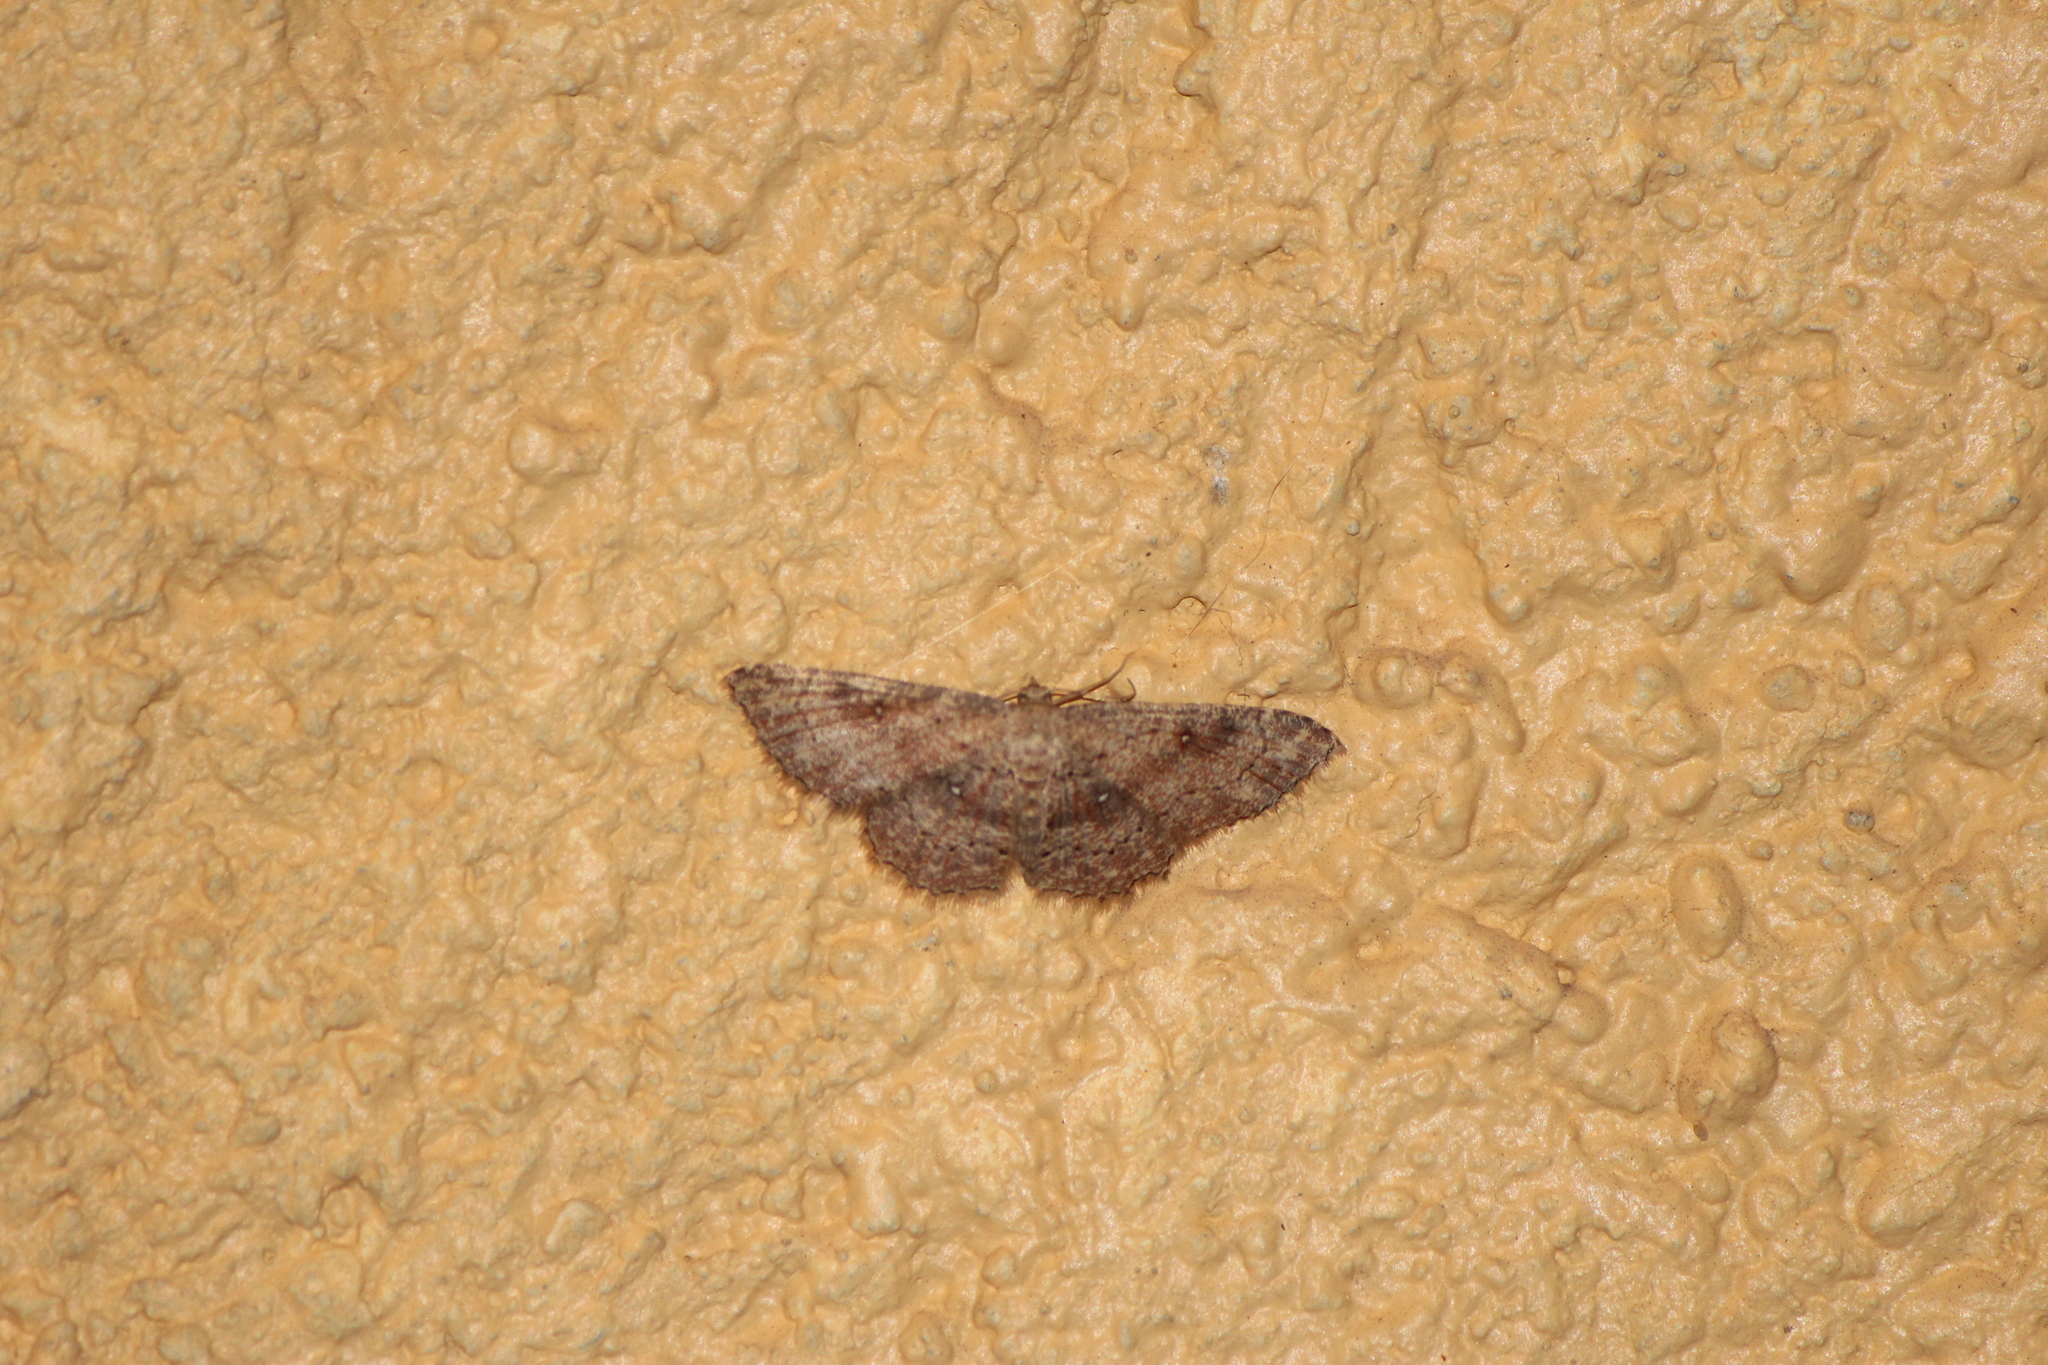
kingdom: Animalia
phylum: Arthropoda
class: Insecta
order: Lepidoptera
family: Geometridae
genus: Cyclophora
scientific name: Cyclophora nanaria
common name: Cankerworm
